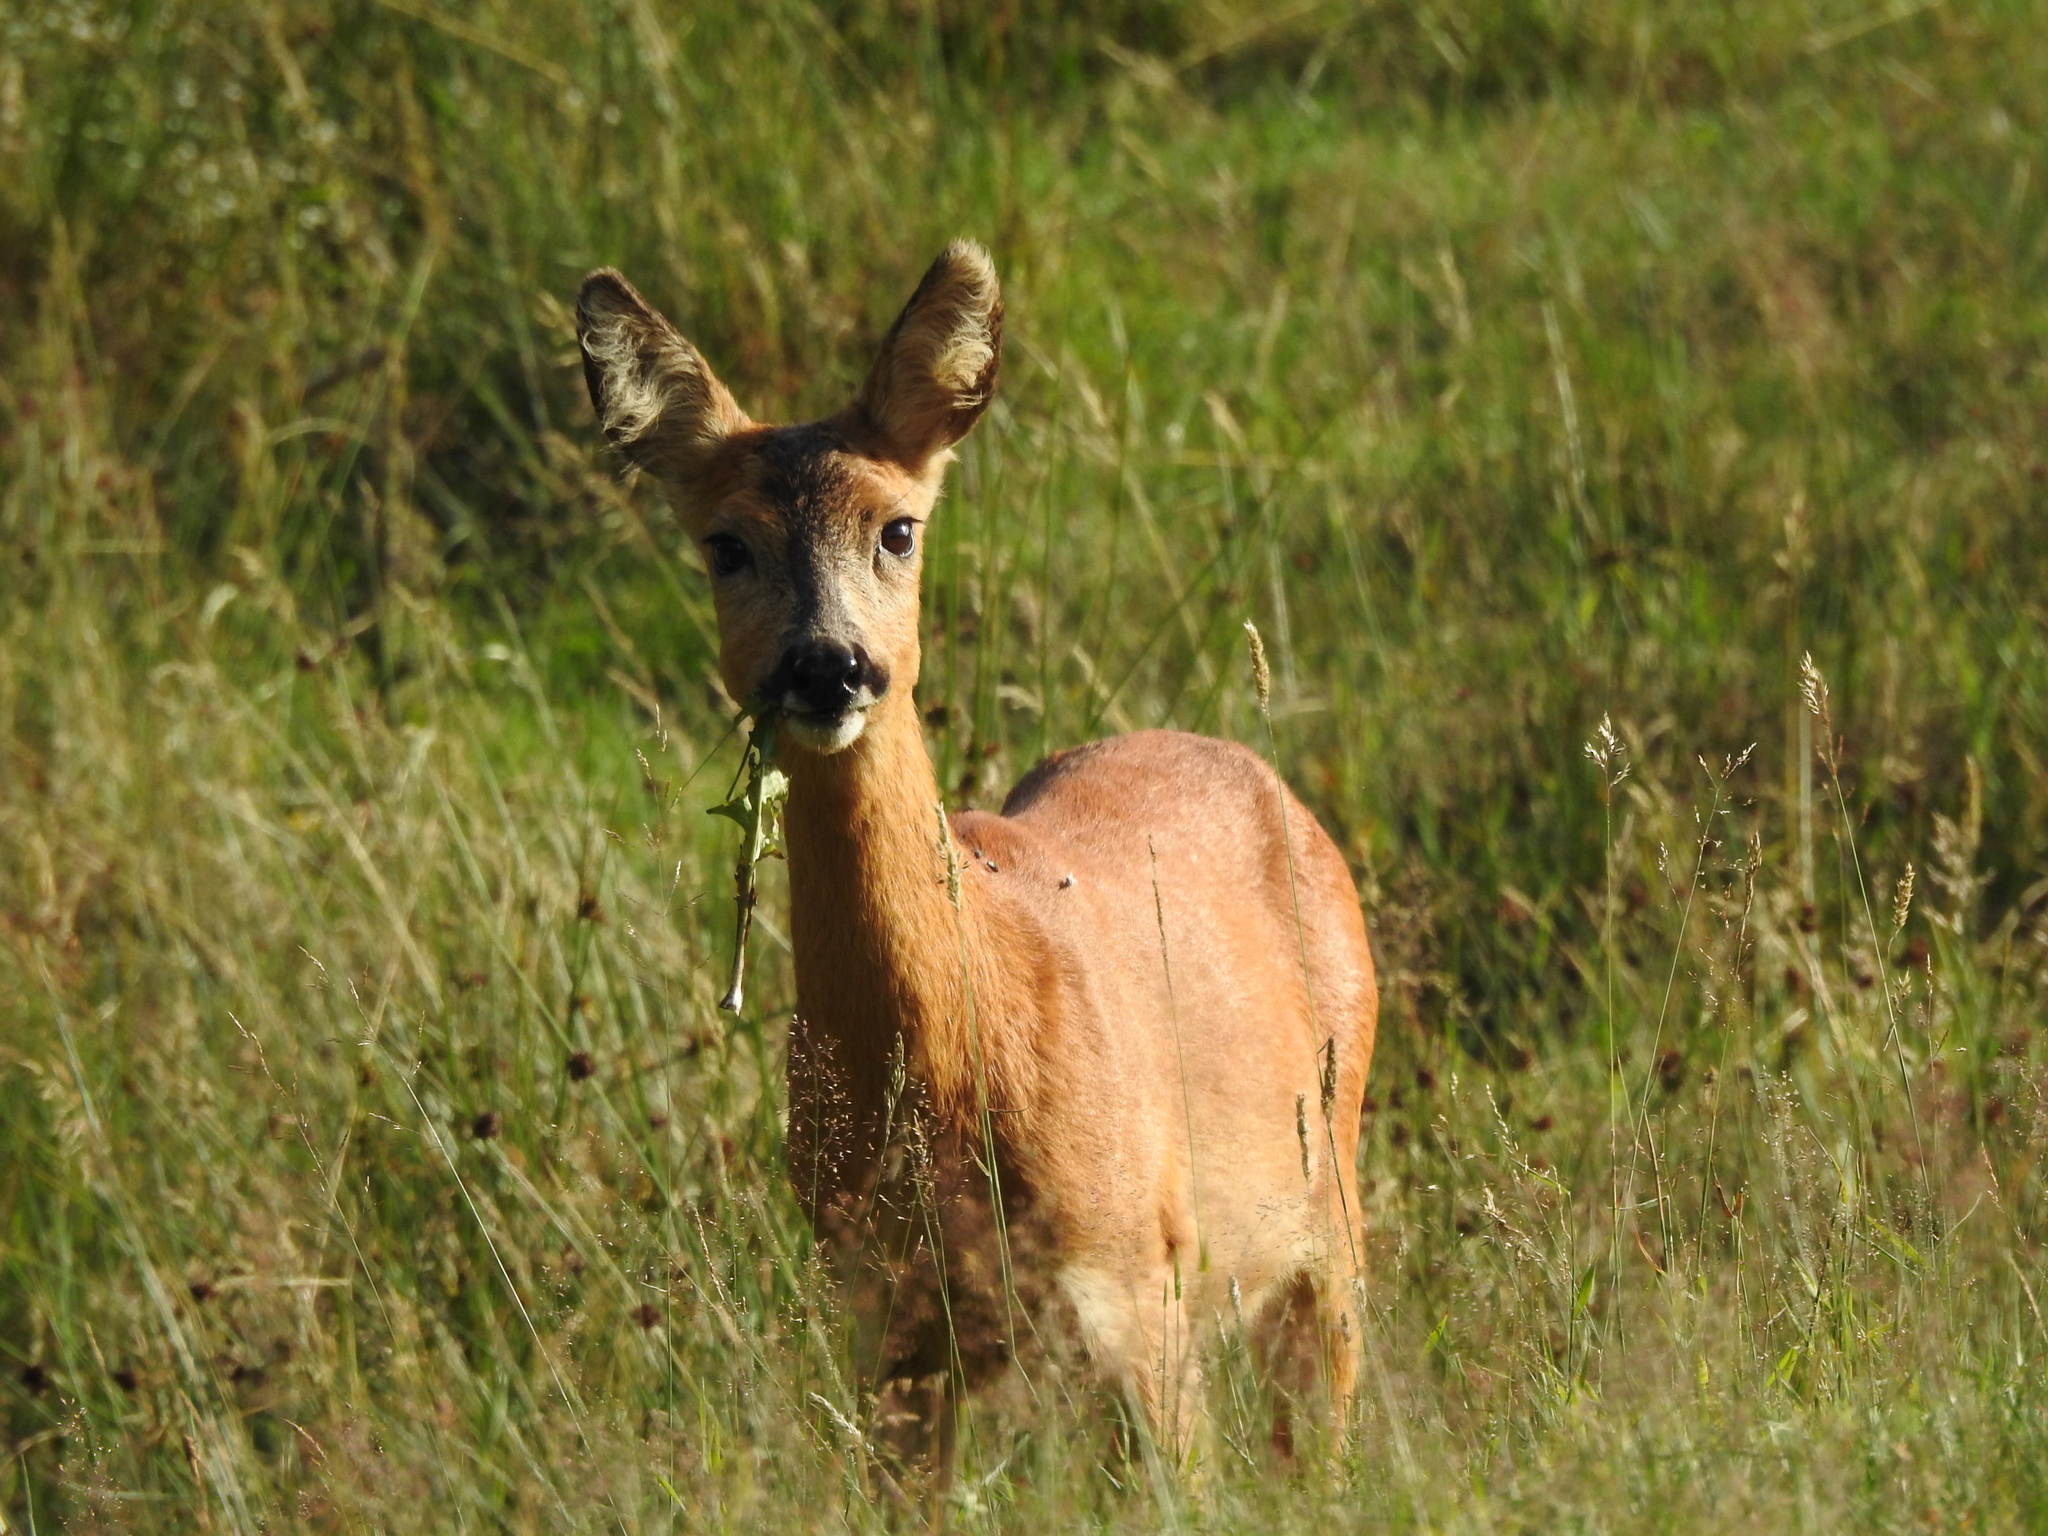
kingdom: Animalia
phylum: Chordata
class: Mammalia
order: Artiodactyla
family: Cervidae
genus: Capreolus
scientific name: Capreolus capreolus
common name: Western roe deer
